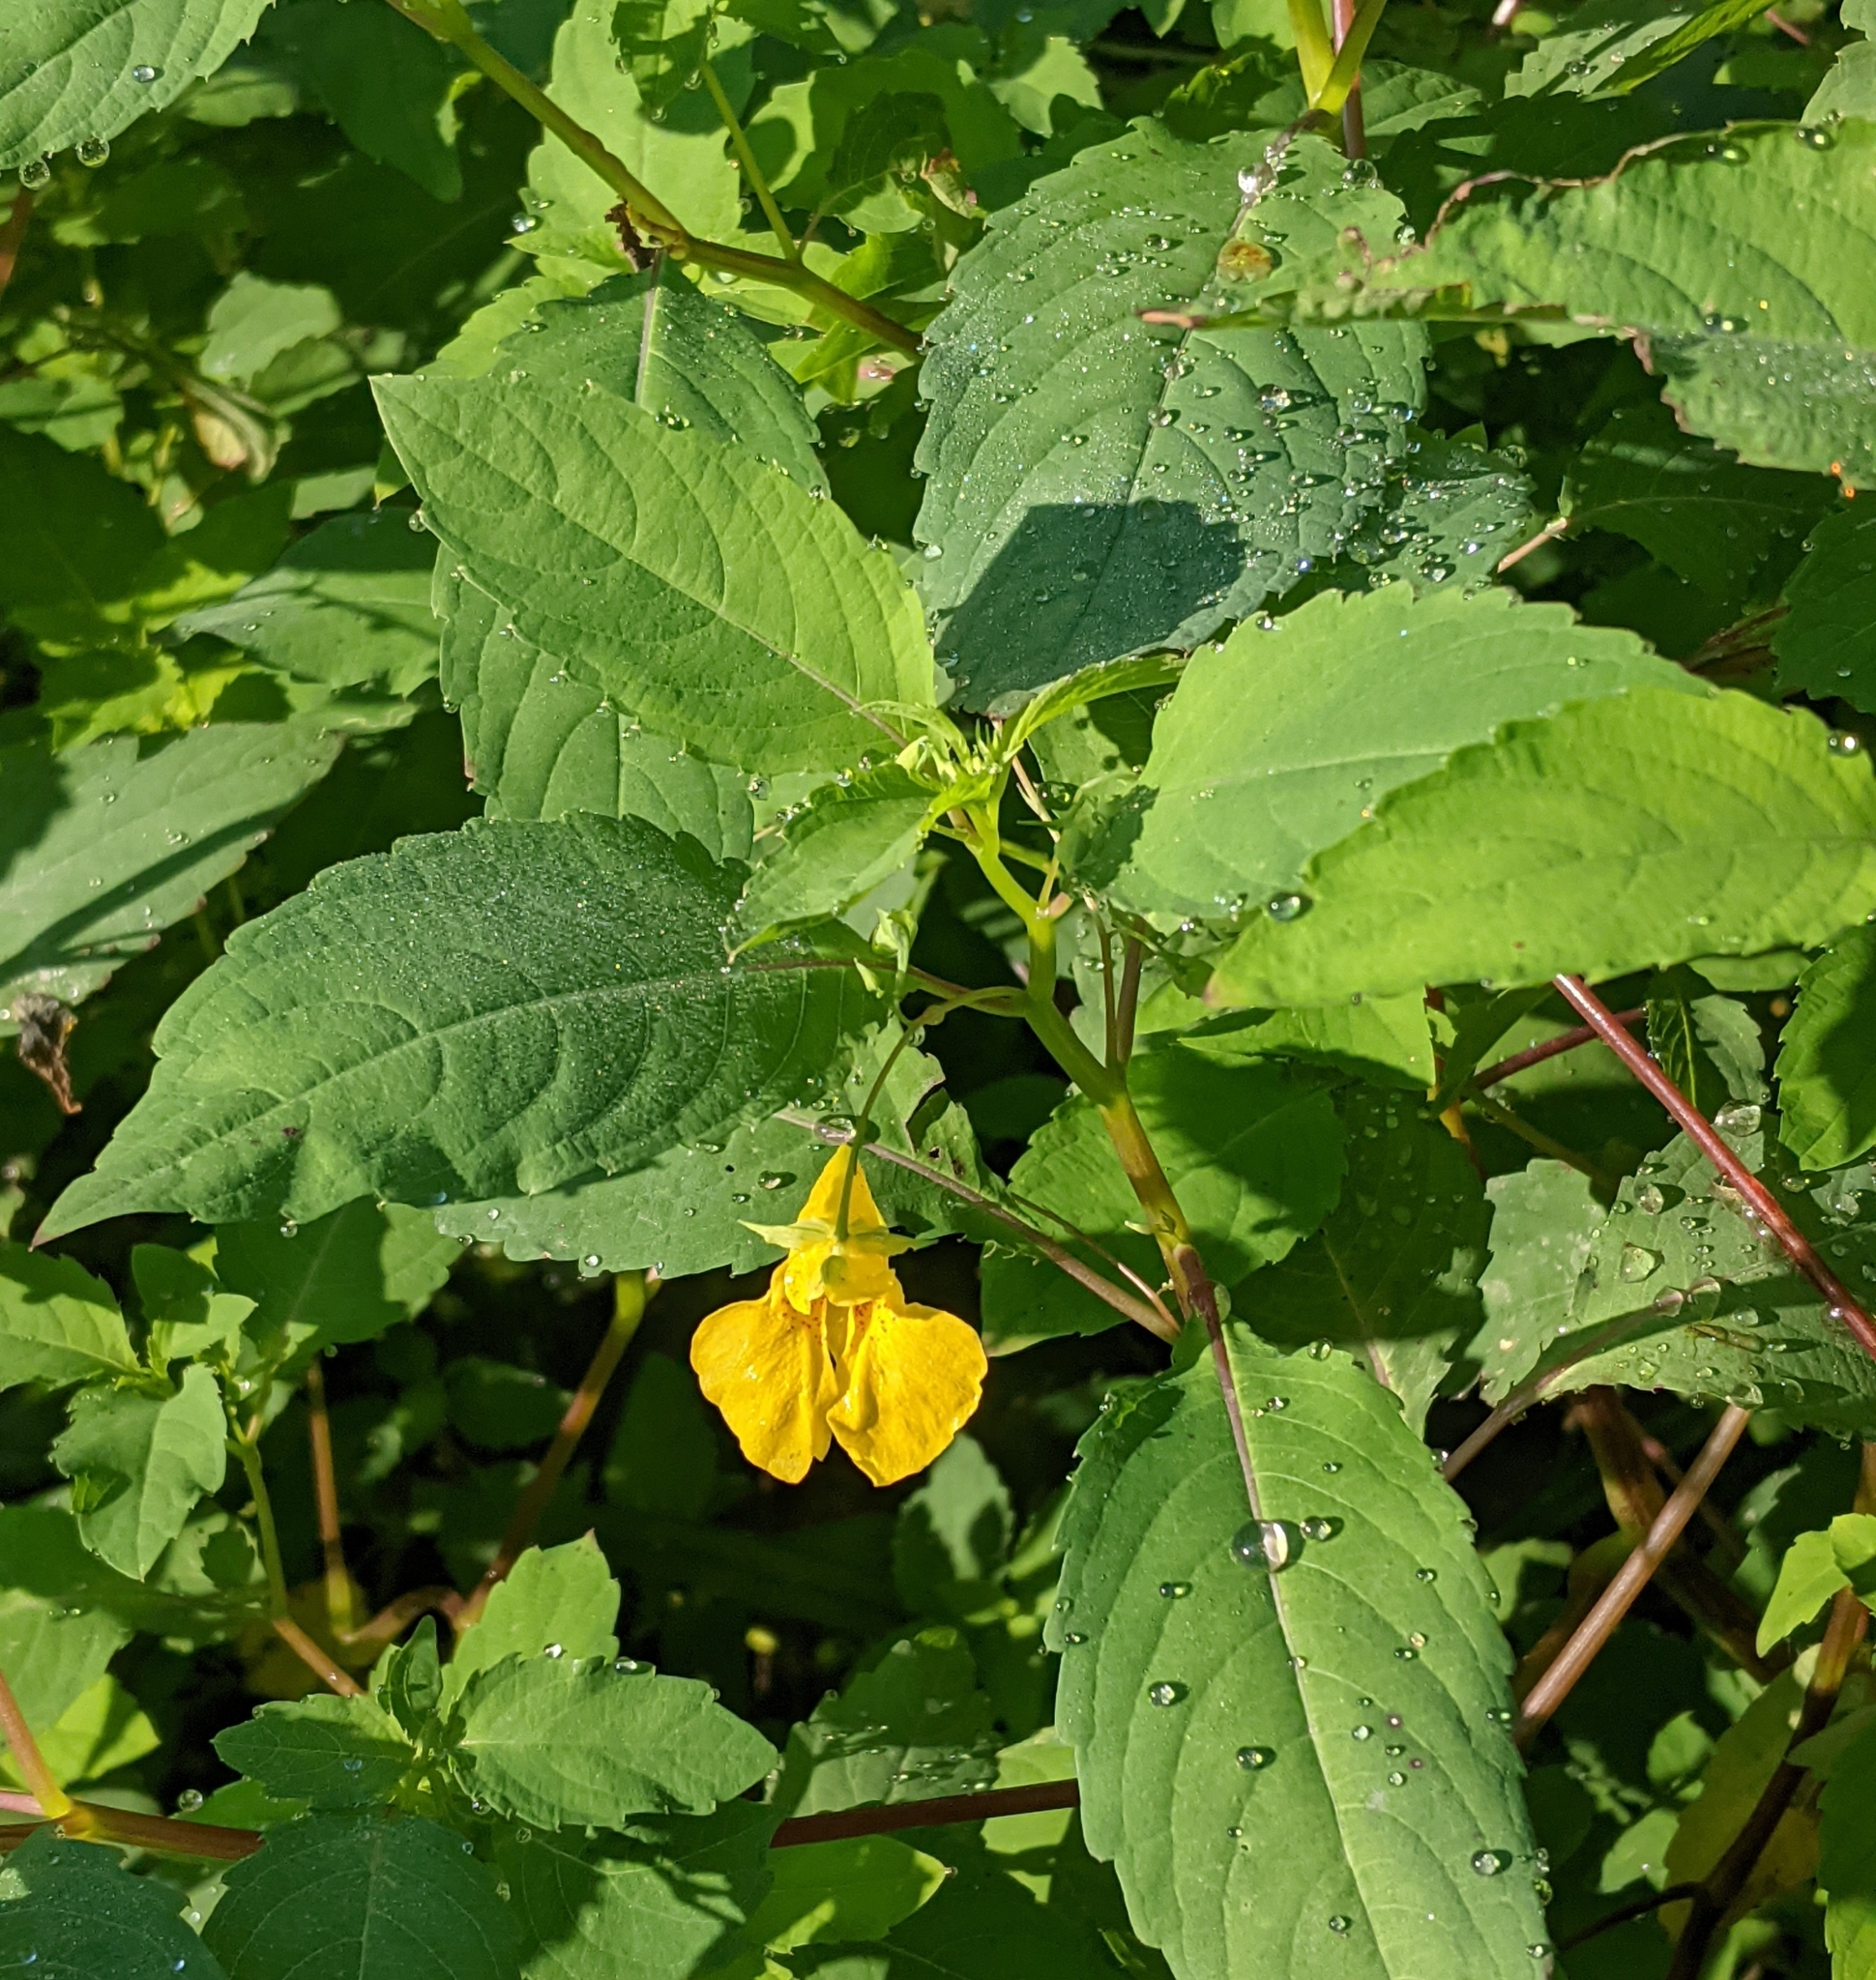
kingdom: Plantae
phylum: Tracheophyta
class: Magnoliopsida
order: Ericales
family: Balsaminaceae
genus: Impatiens
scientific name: Impatiens noli-tangere
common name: Touch-me-not balsam
